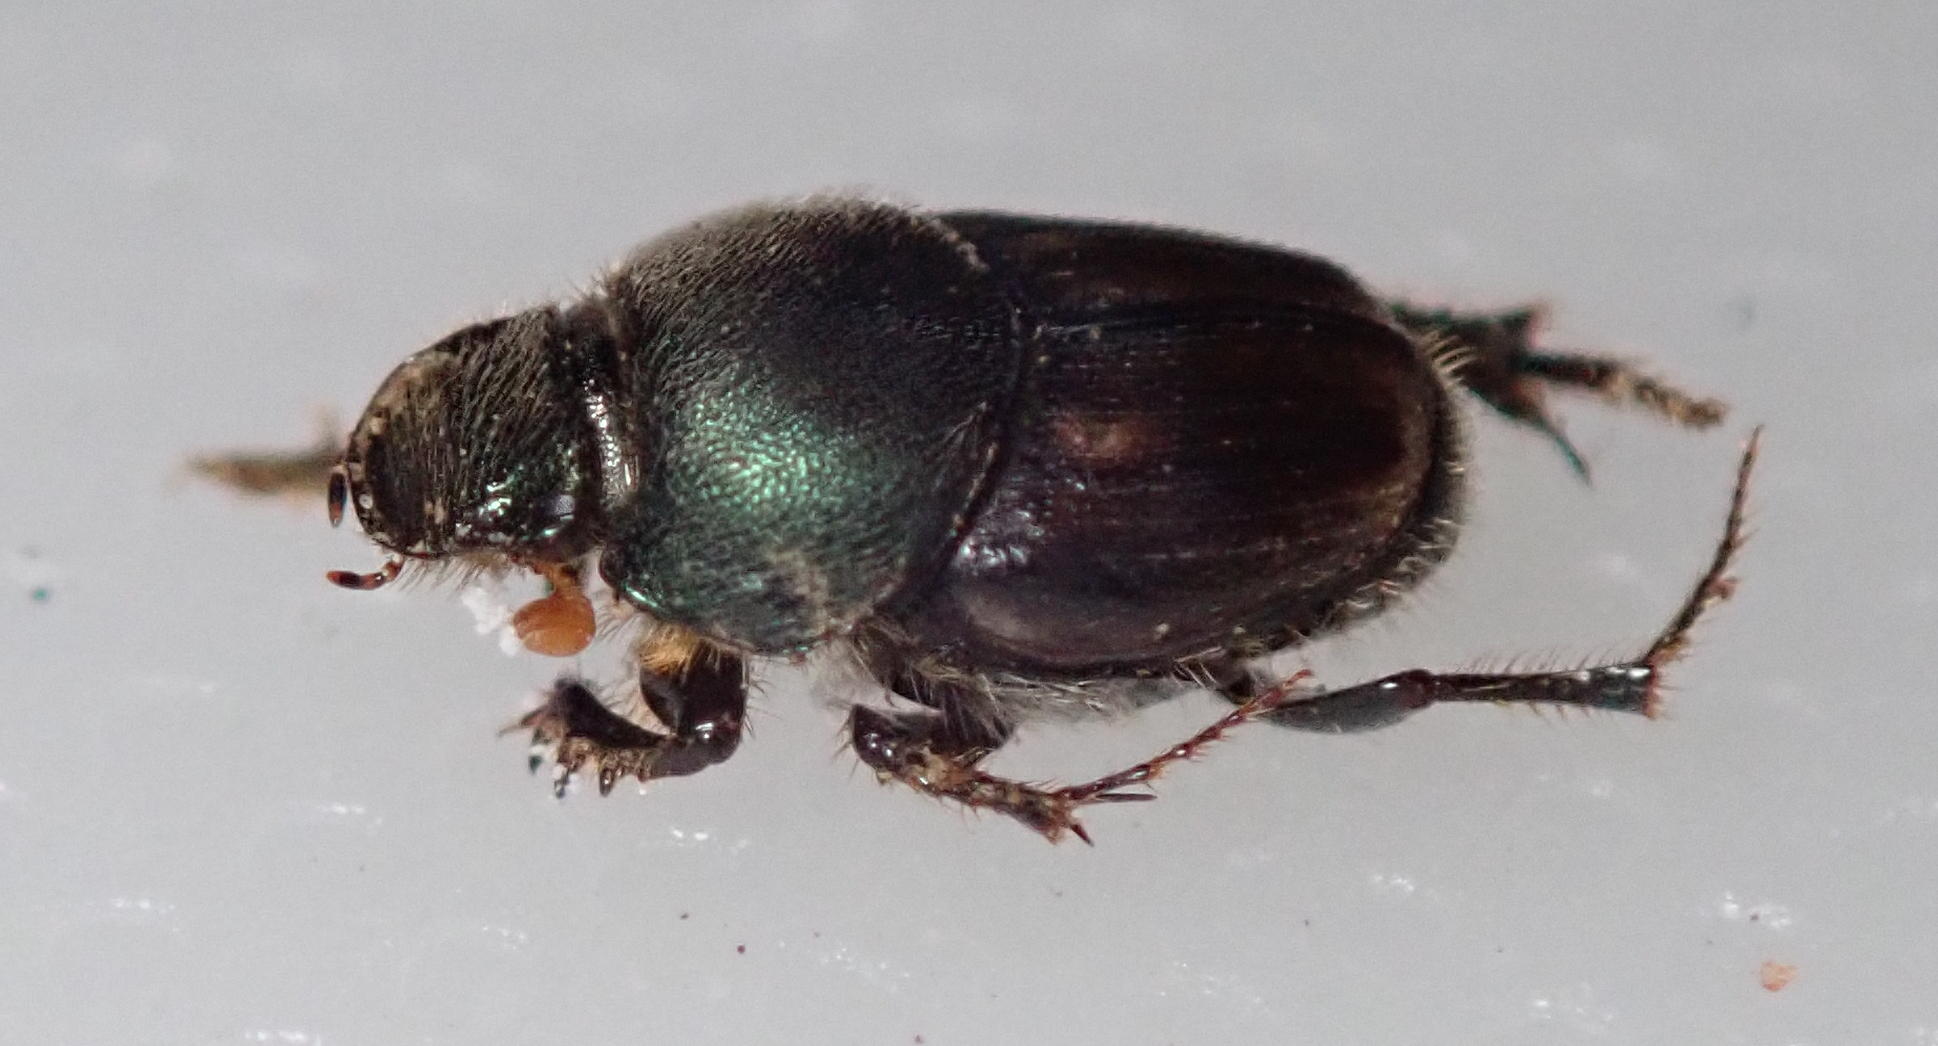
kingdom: Animalia
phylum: Arthropoda
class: Insecta
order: Coleoptera
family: Scarabaeidae
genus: Kurtops
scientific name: Kurtops quadraticeps
